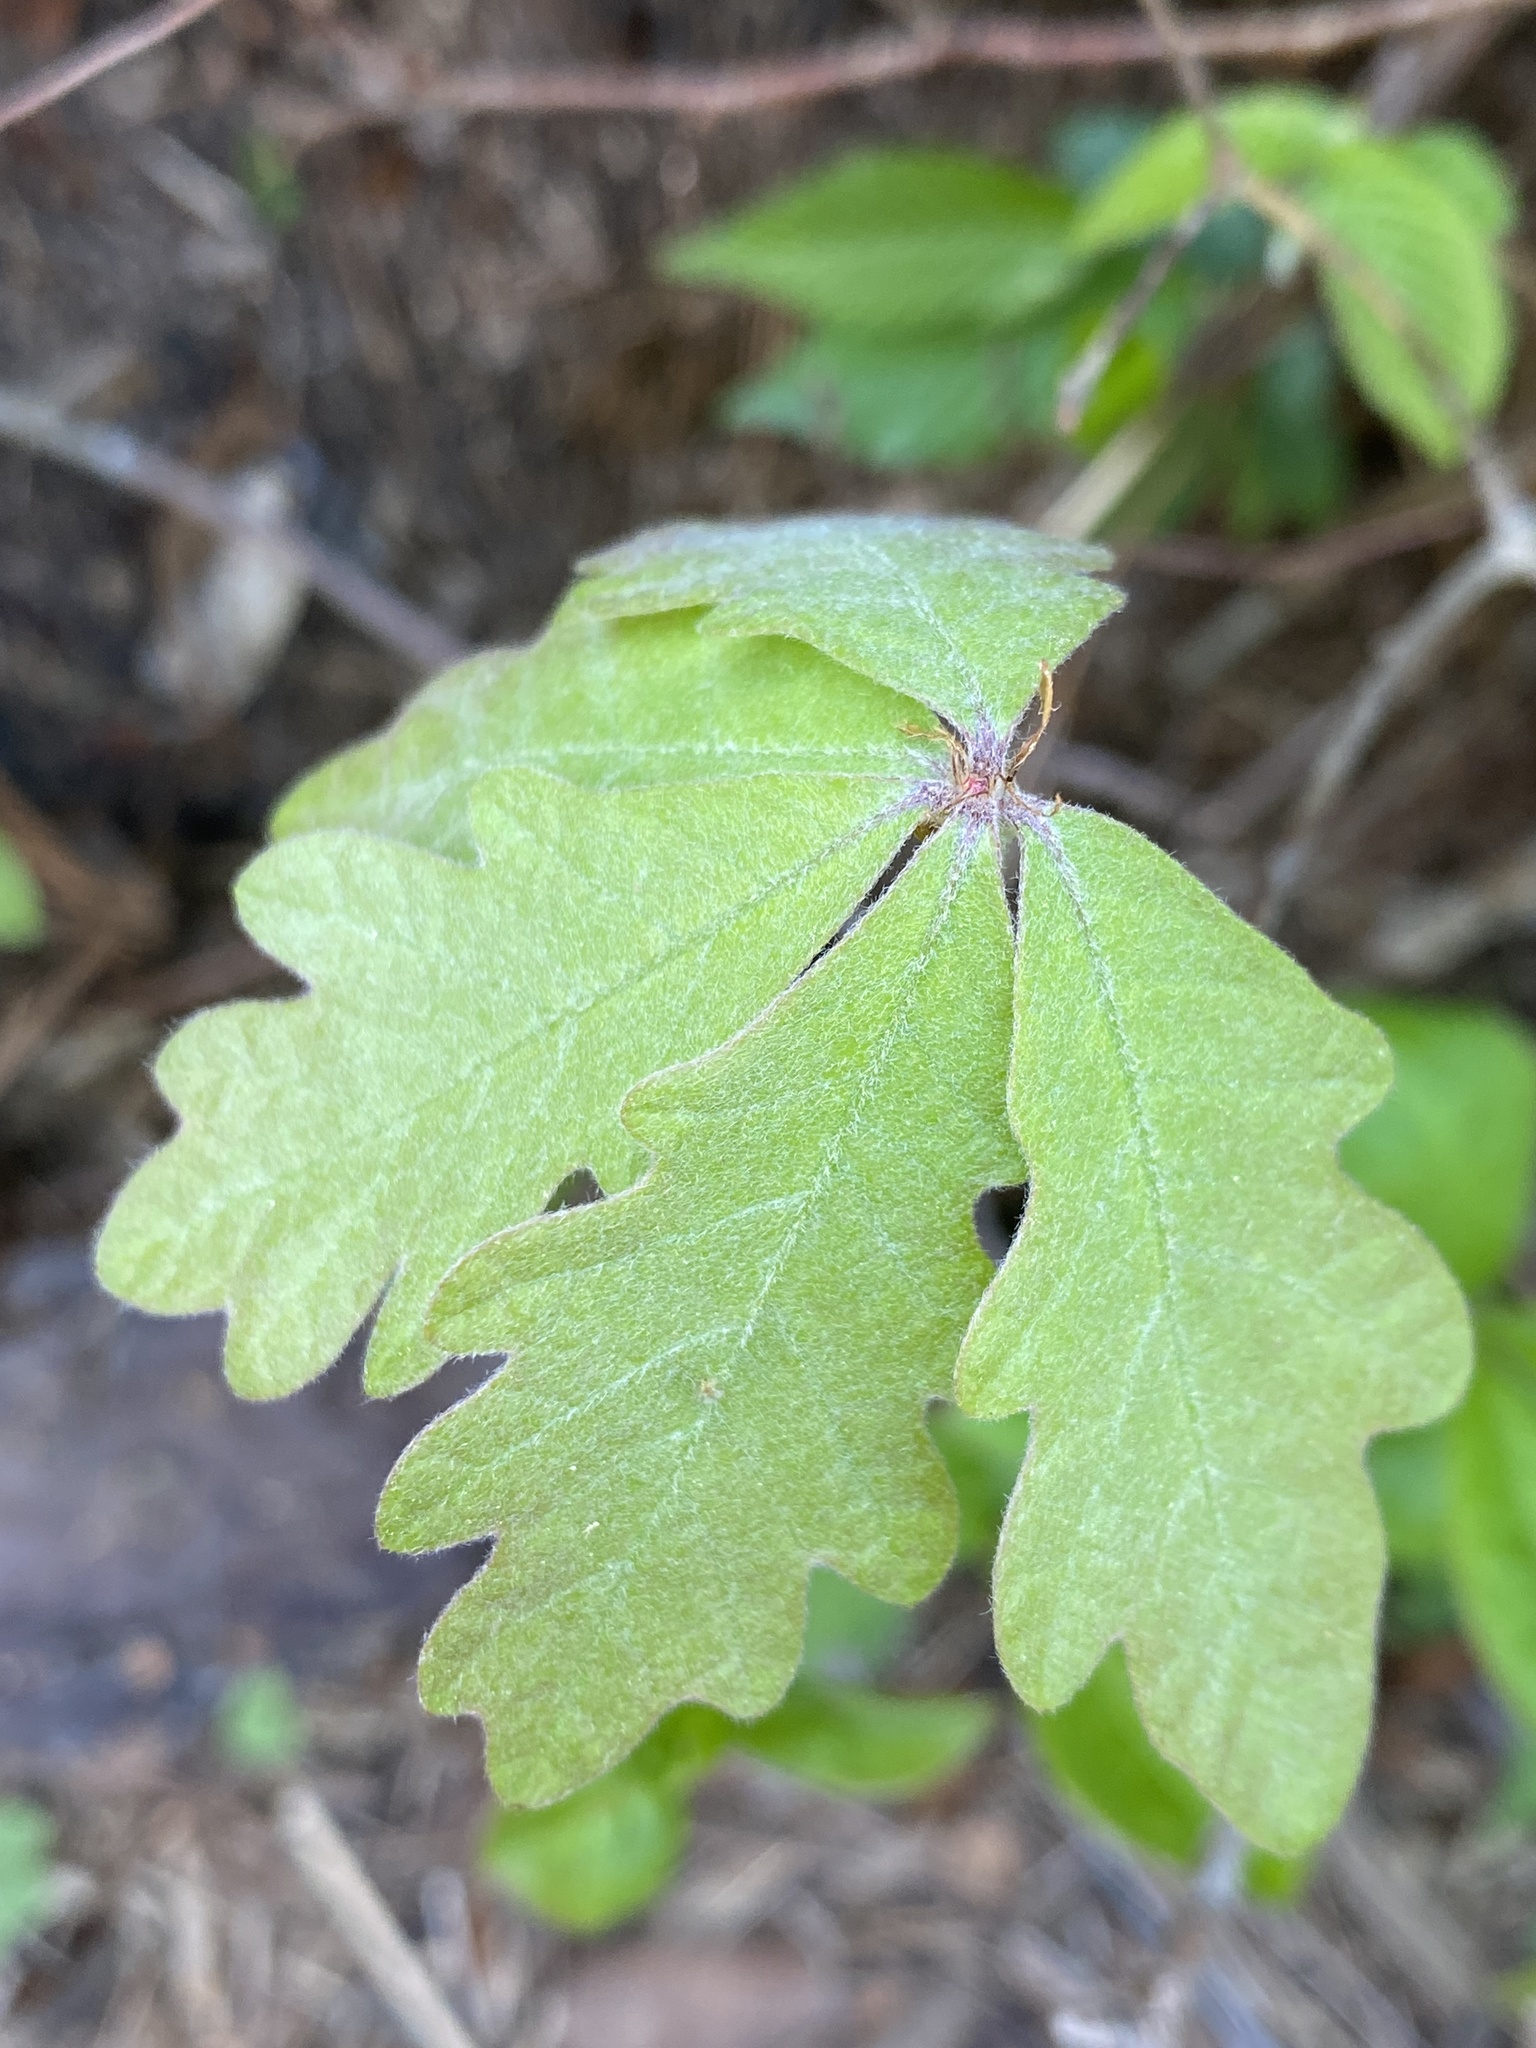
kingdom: Plantae
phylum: Tracheophyta
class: Magnoliopsida
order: Fagales
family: Fagaceae
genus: Quercus
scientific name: Quercus alba
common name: White oak
